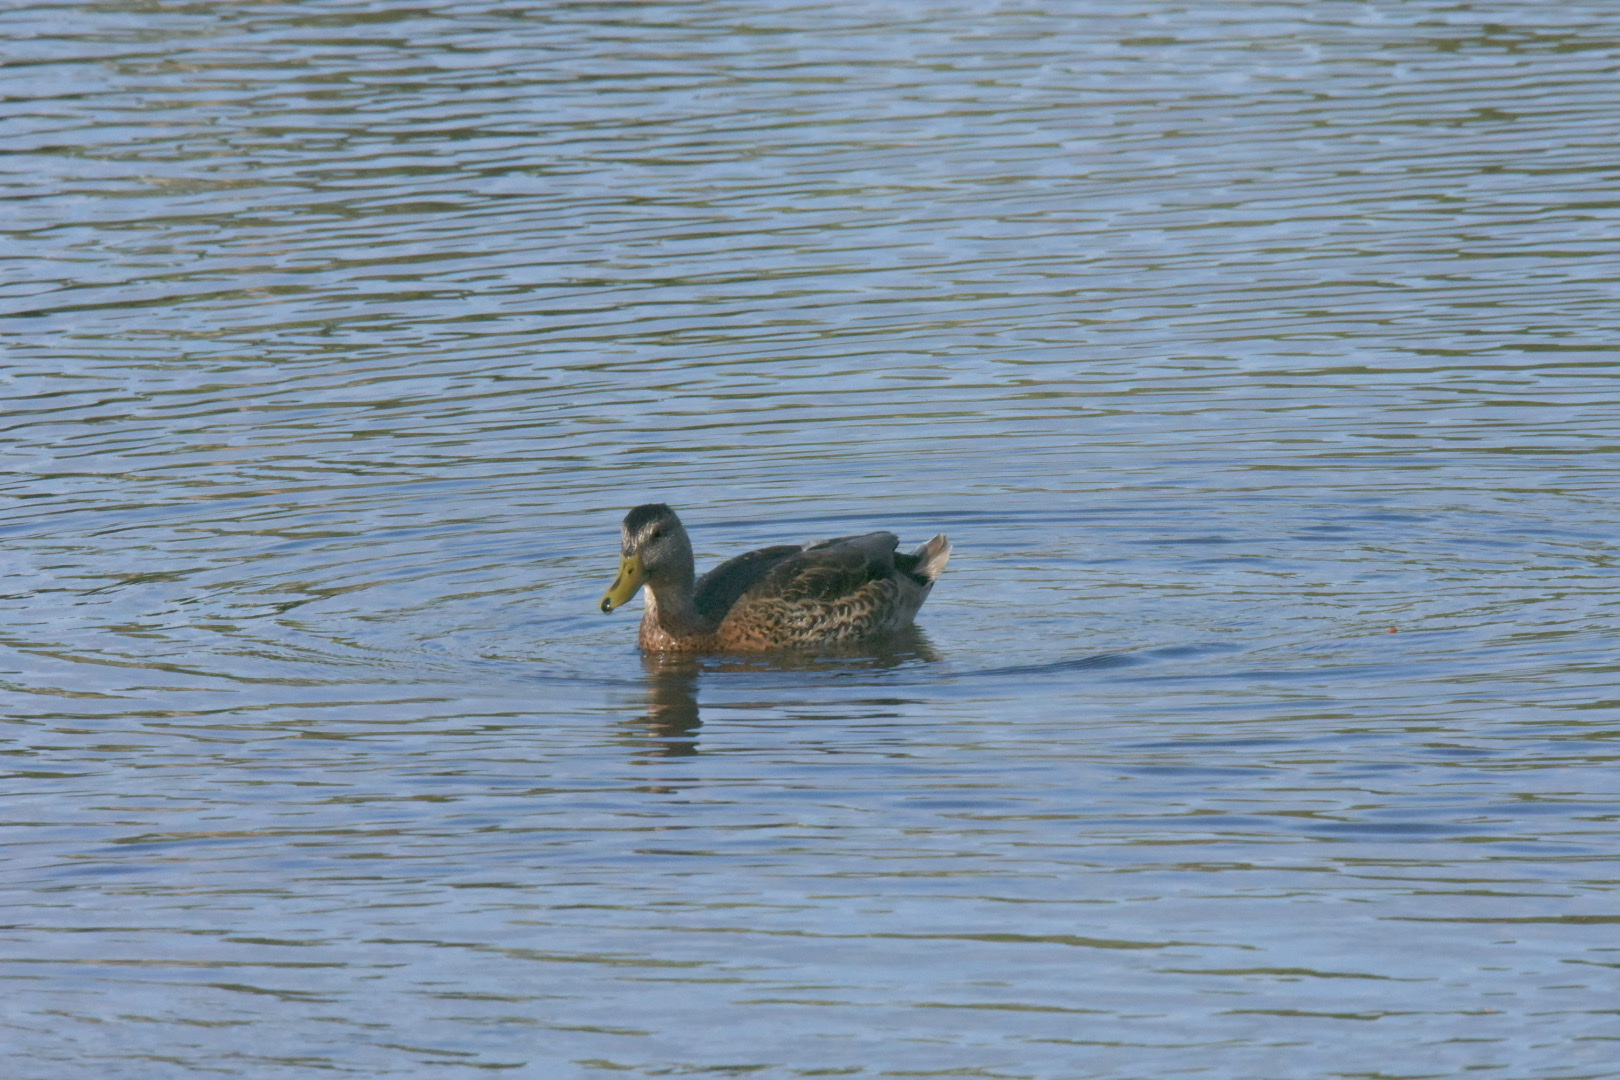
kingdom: Animalia
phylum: Chordata
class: Aves
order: Anseriformes
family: Anatidae
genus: Anas
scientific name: Anas platyrhynchos
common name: Mallard
